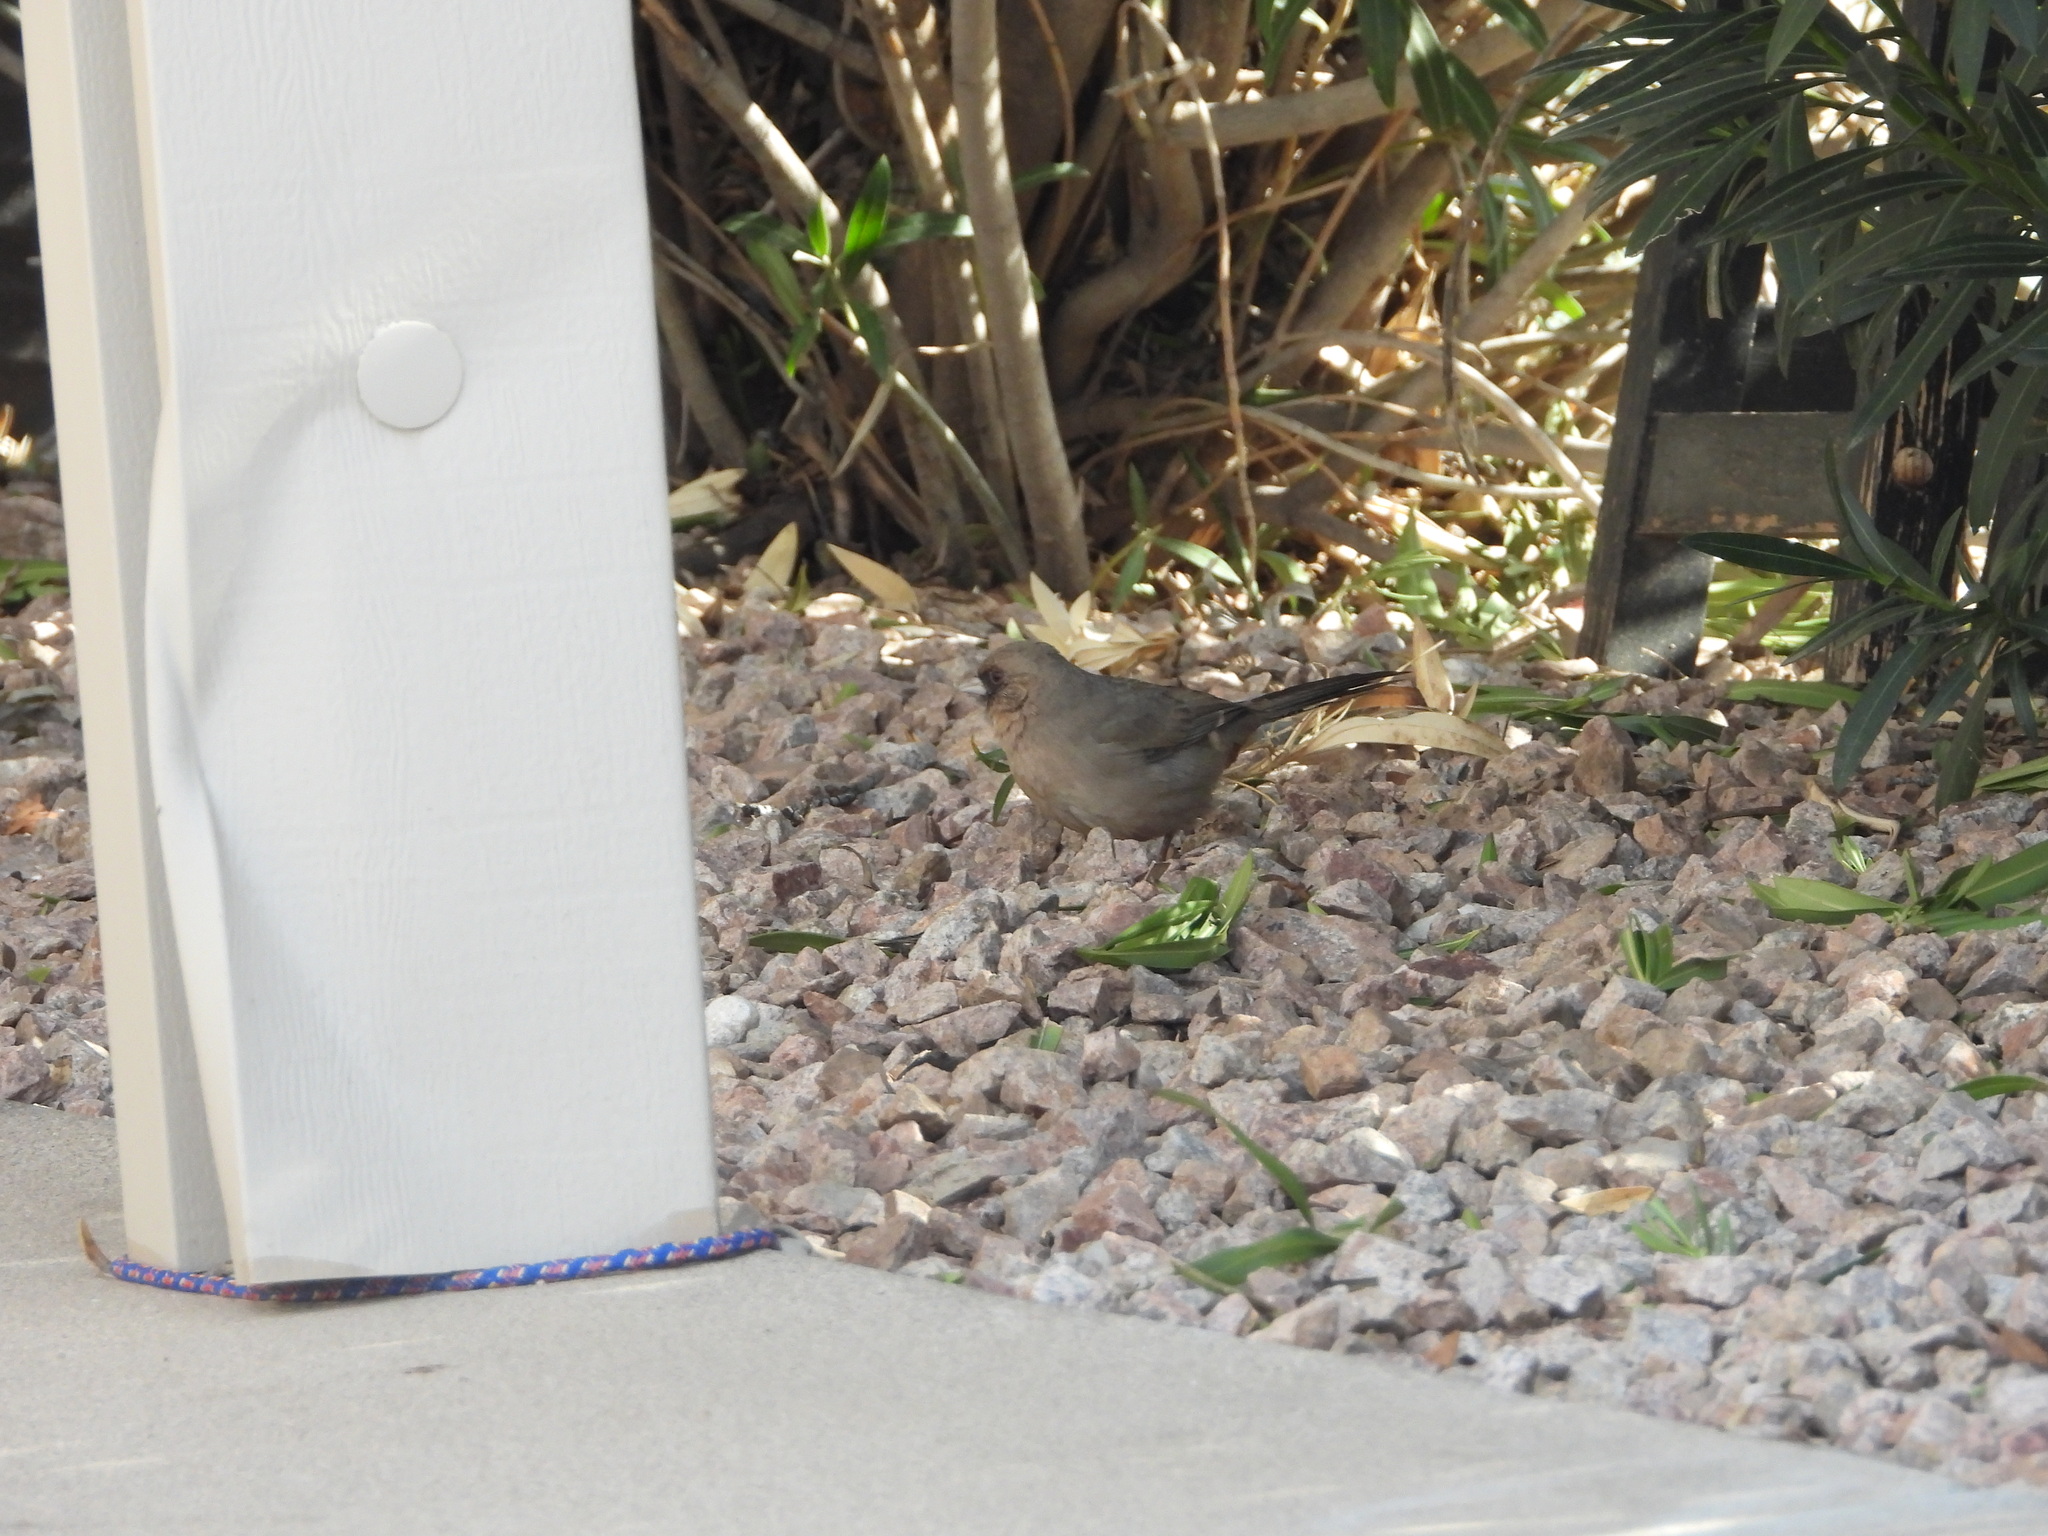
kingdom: Animalia
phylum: Chordata
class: Aves
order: Passeriformes
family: Passerellidae
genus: Melozone
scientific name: Melozone aberti
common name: Abert's towhee
